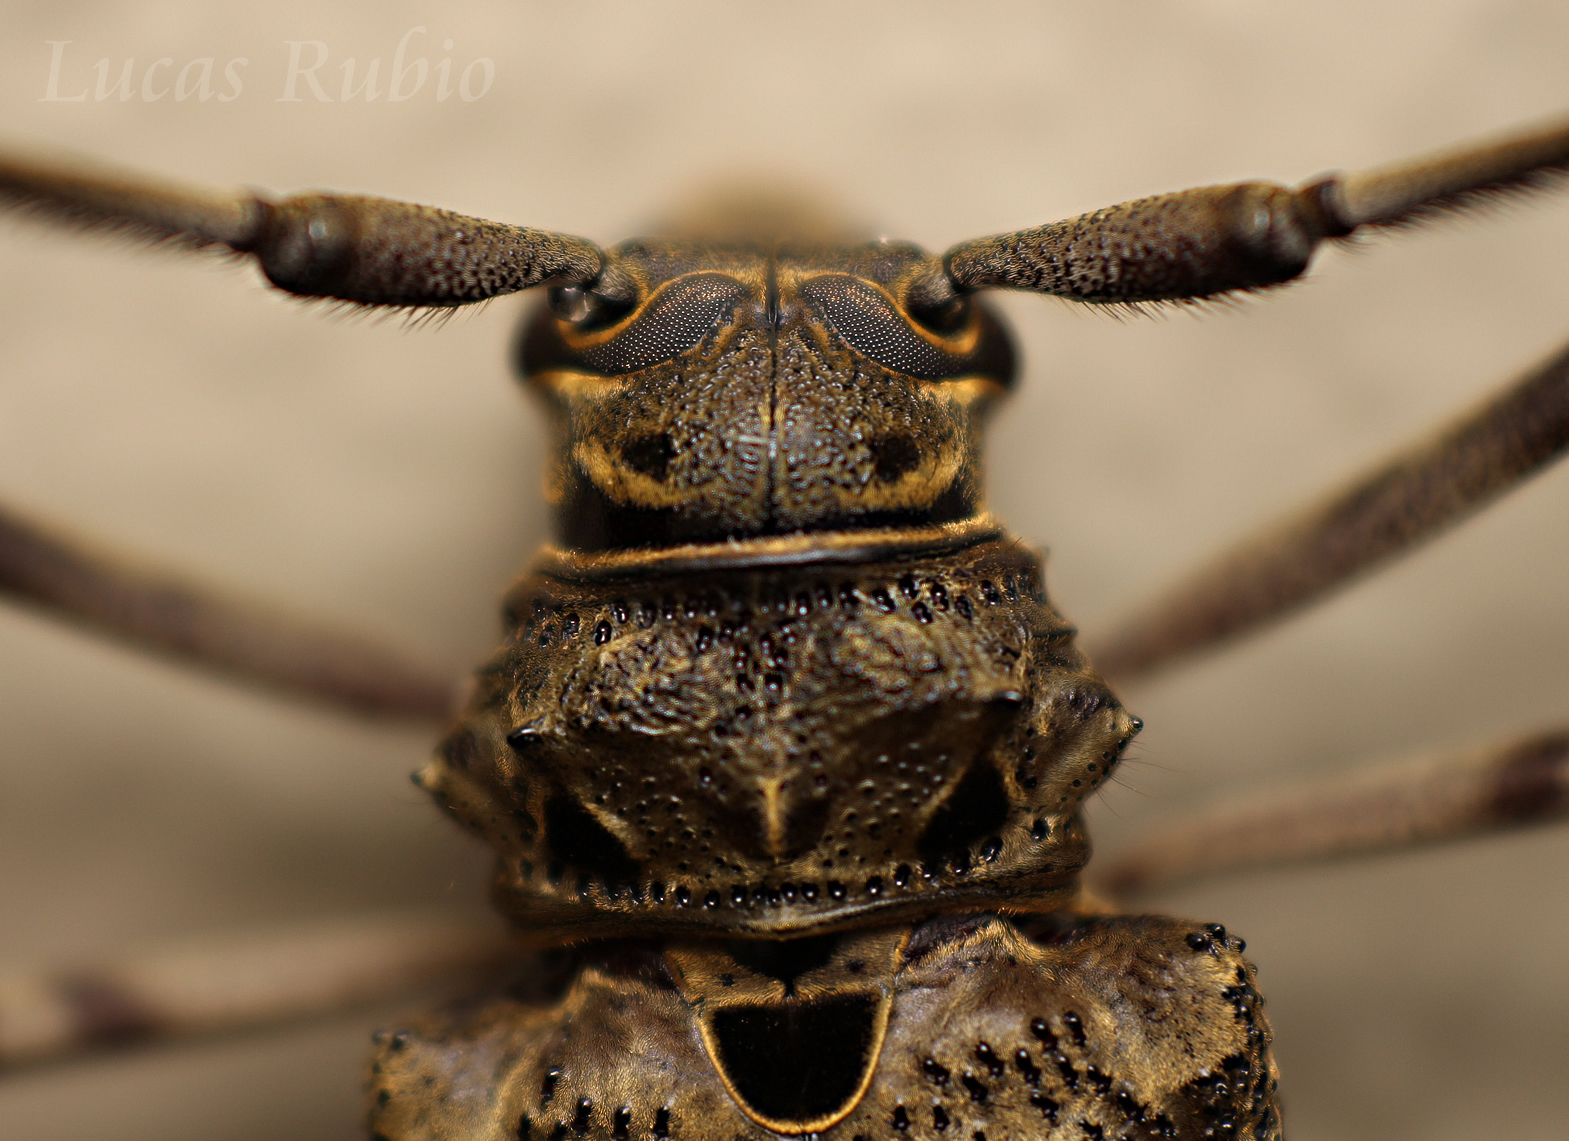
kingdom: Animalia
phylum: Arthropoda
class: Insecta
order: Coleoptera
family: Cerambycidae
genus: Macropophora
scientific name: Macropophora accentifer
